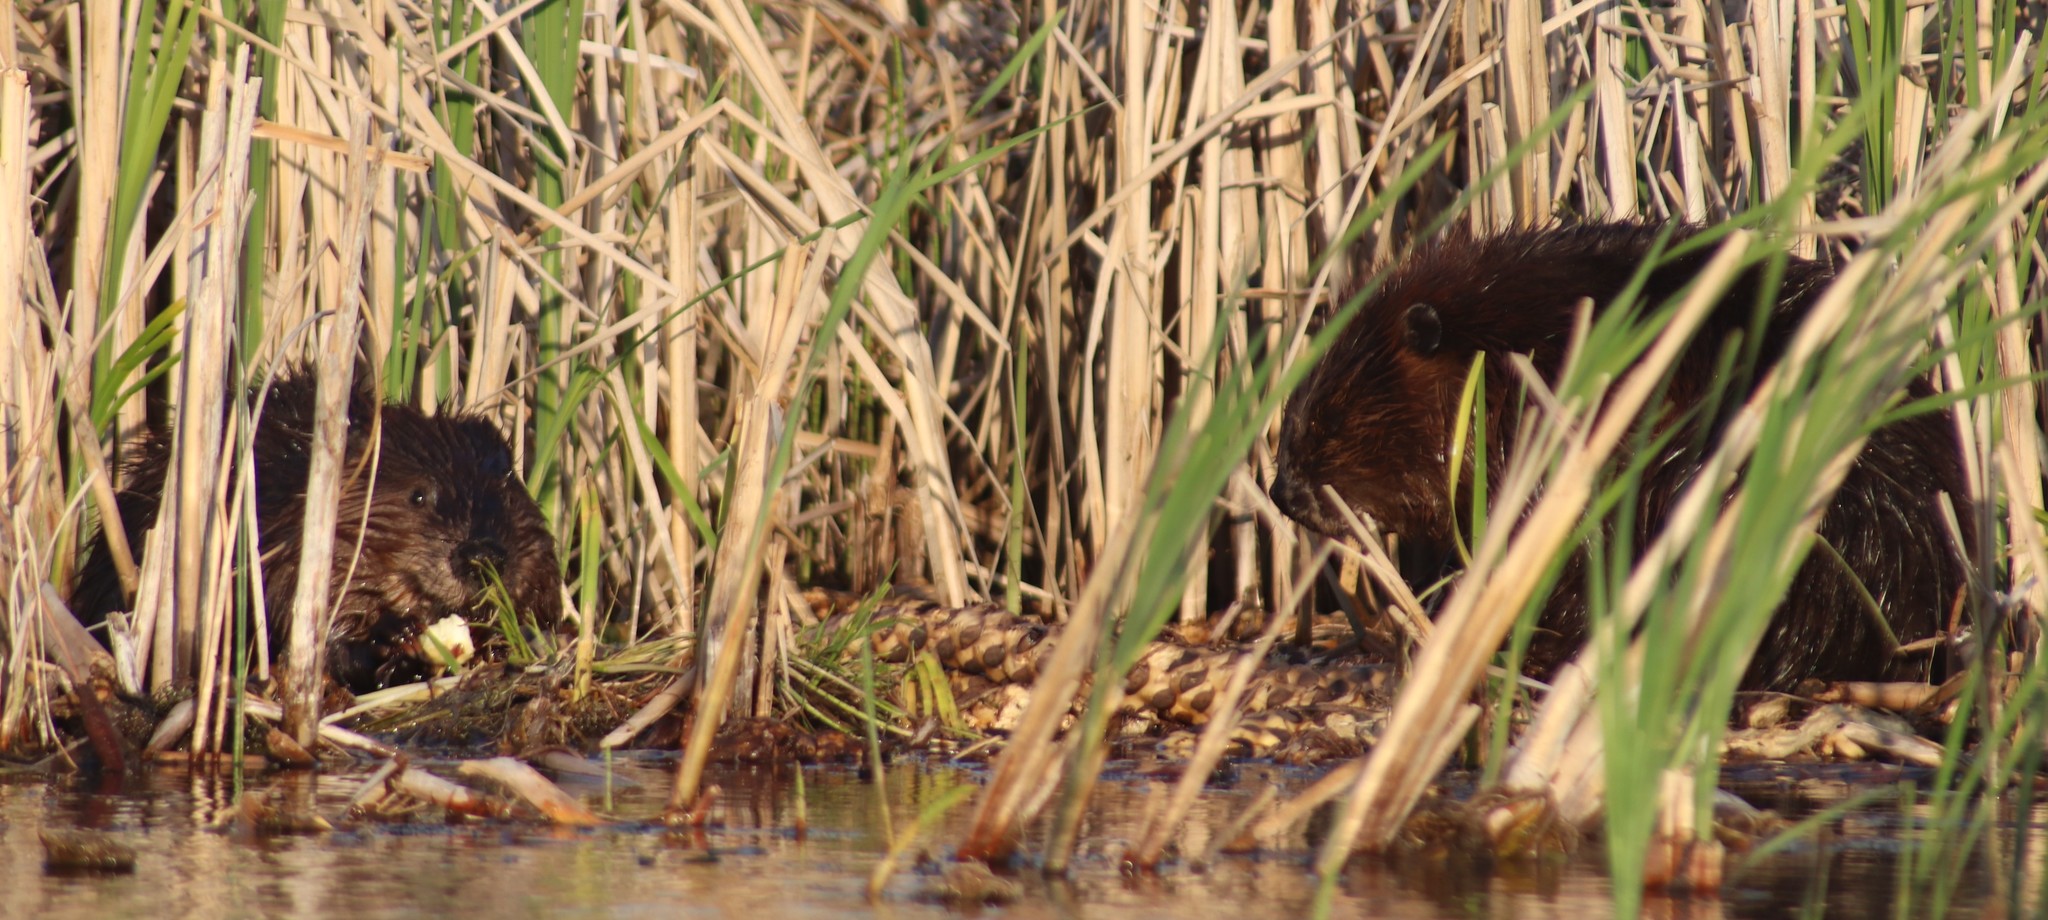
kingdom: Animalia
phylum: Chordata
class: Mammalia
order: Rodentia
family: Castoridae
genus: Castor
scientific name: Castor canadensis
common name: American beaver
